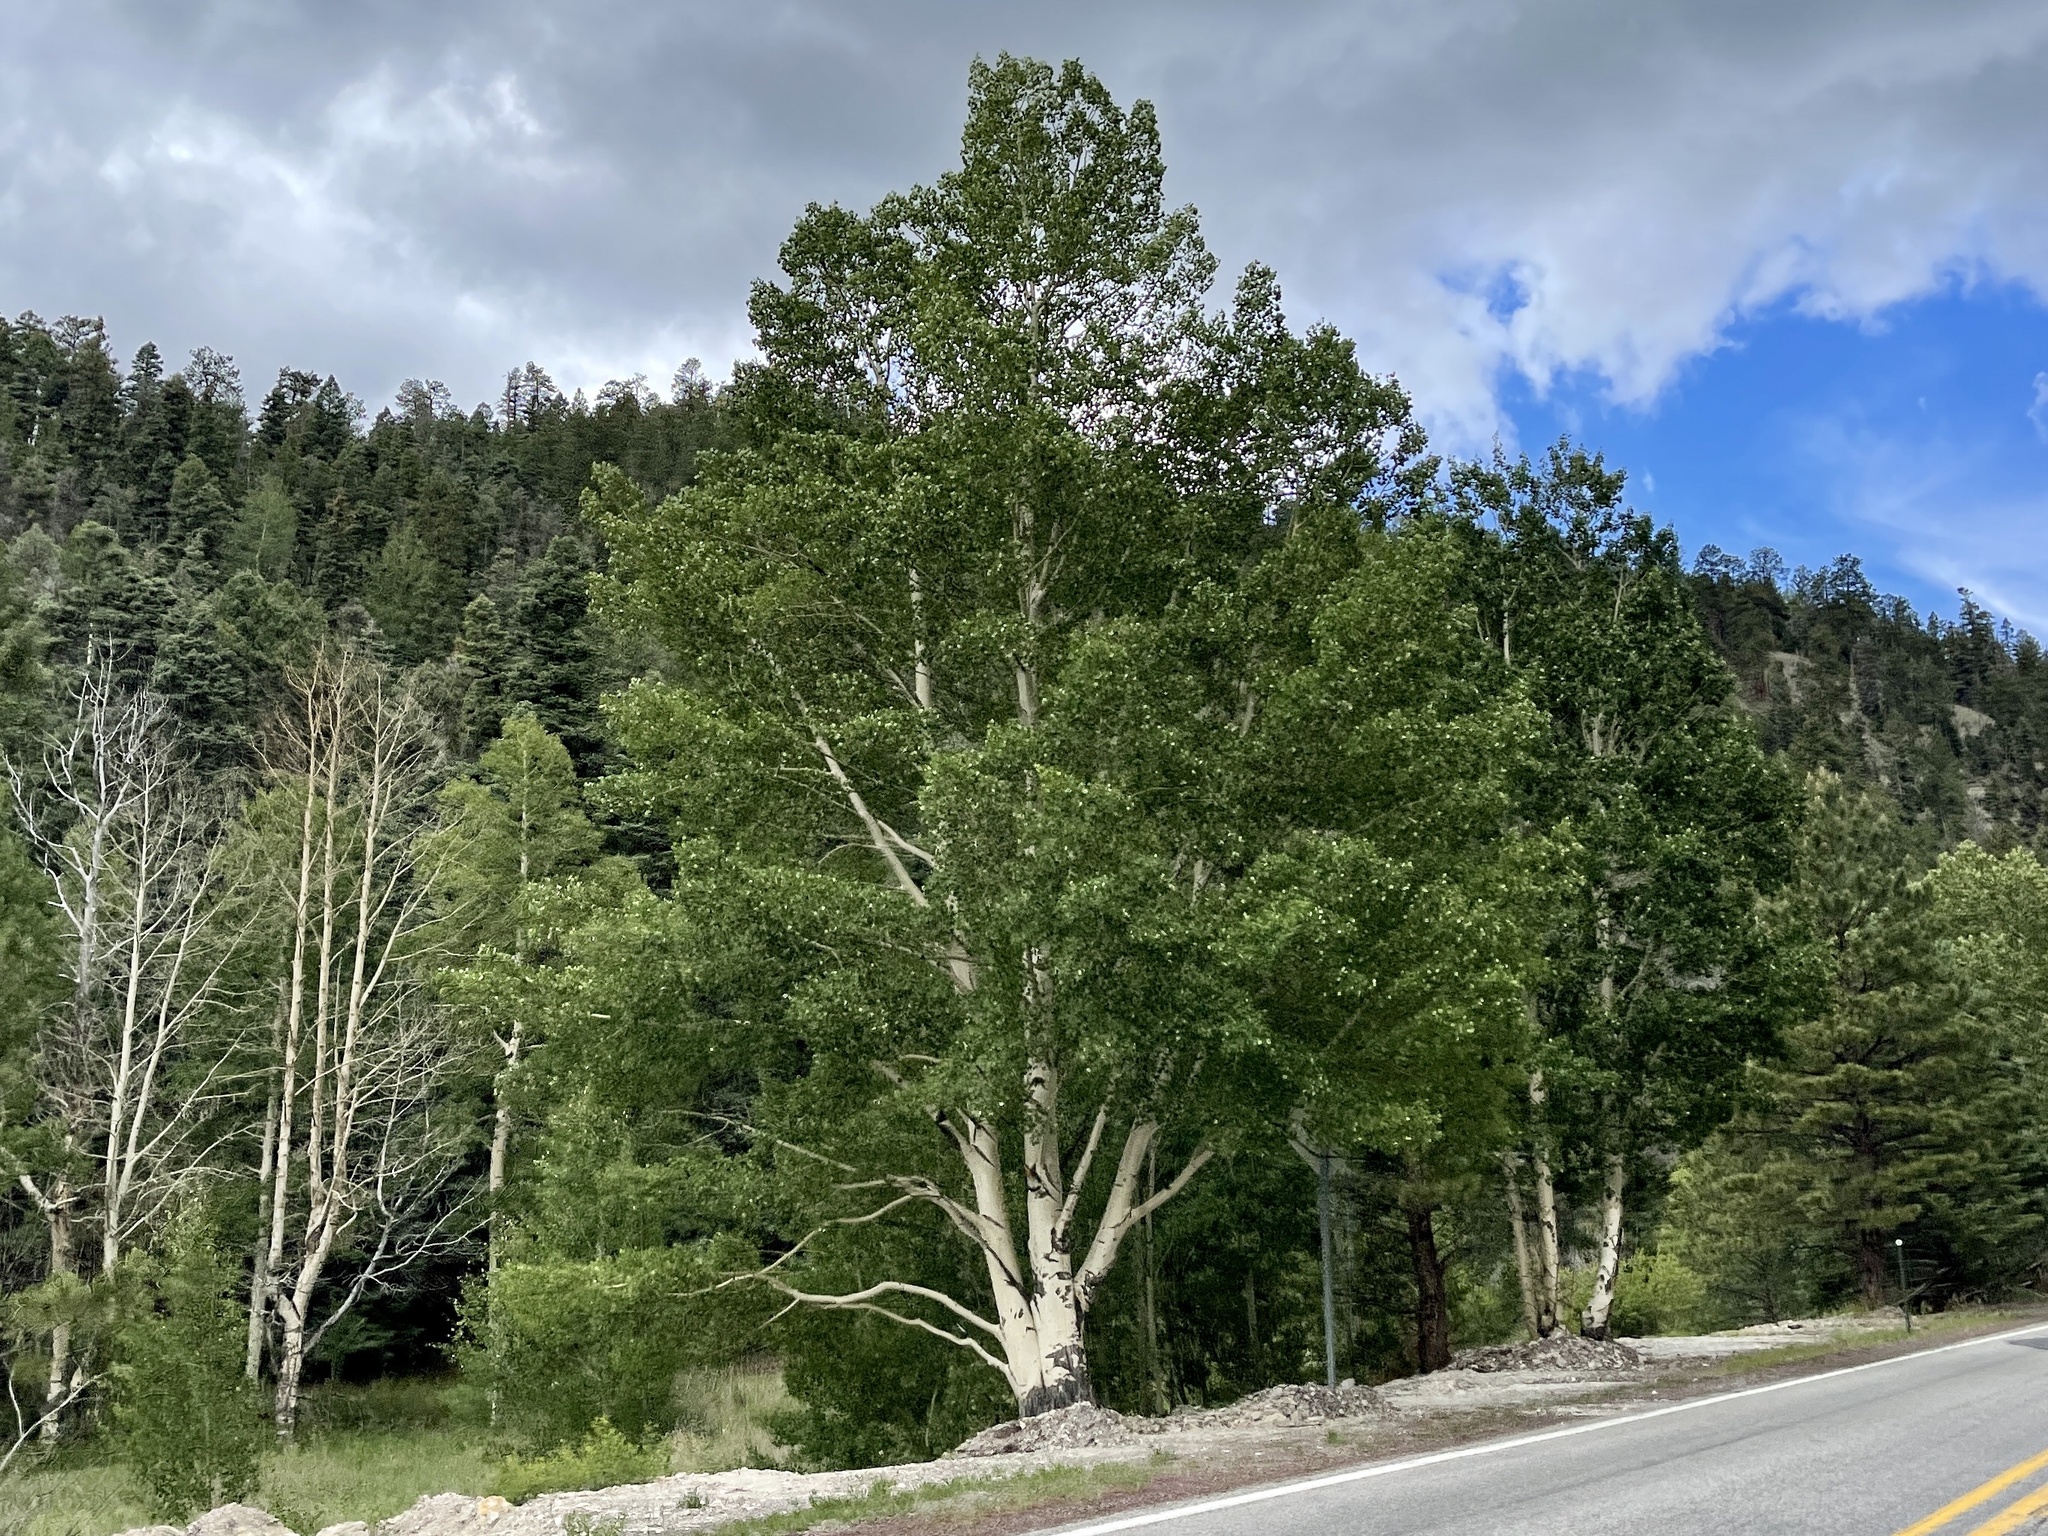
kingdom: Plantae
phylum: Tracheophyta
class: Magnoliopsida
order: Malpighiales
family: Salicaceae
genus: Populus
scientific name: Populus tremuloides
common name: Quaking aspen
